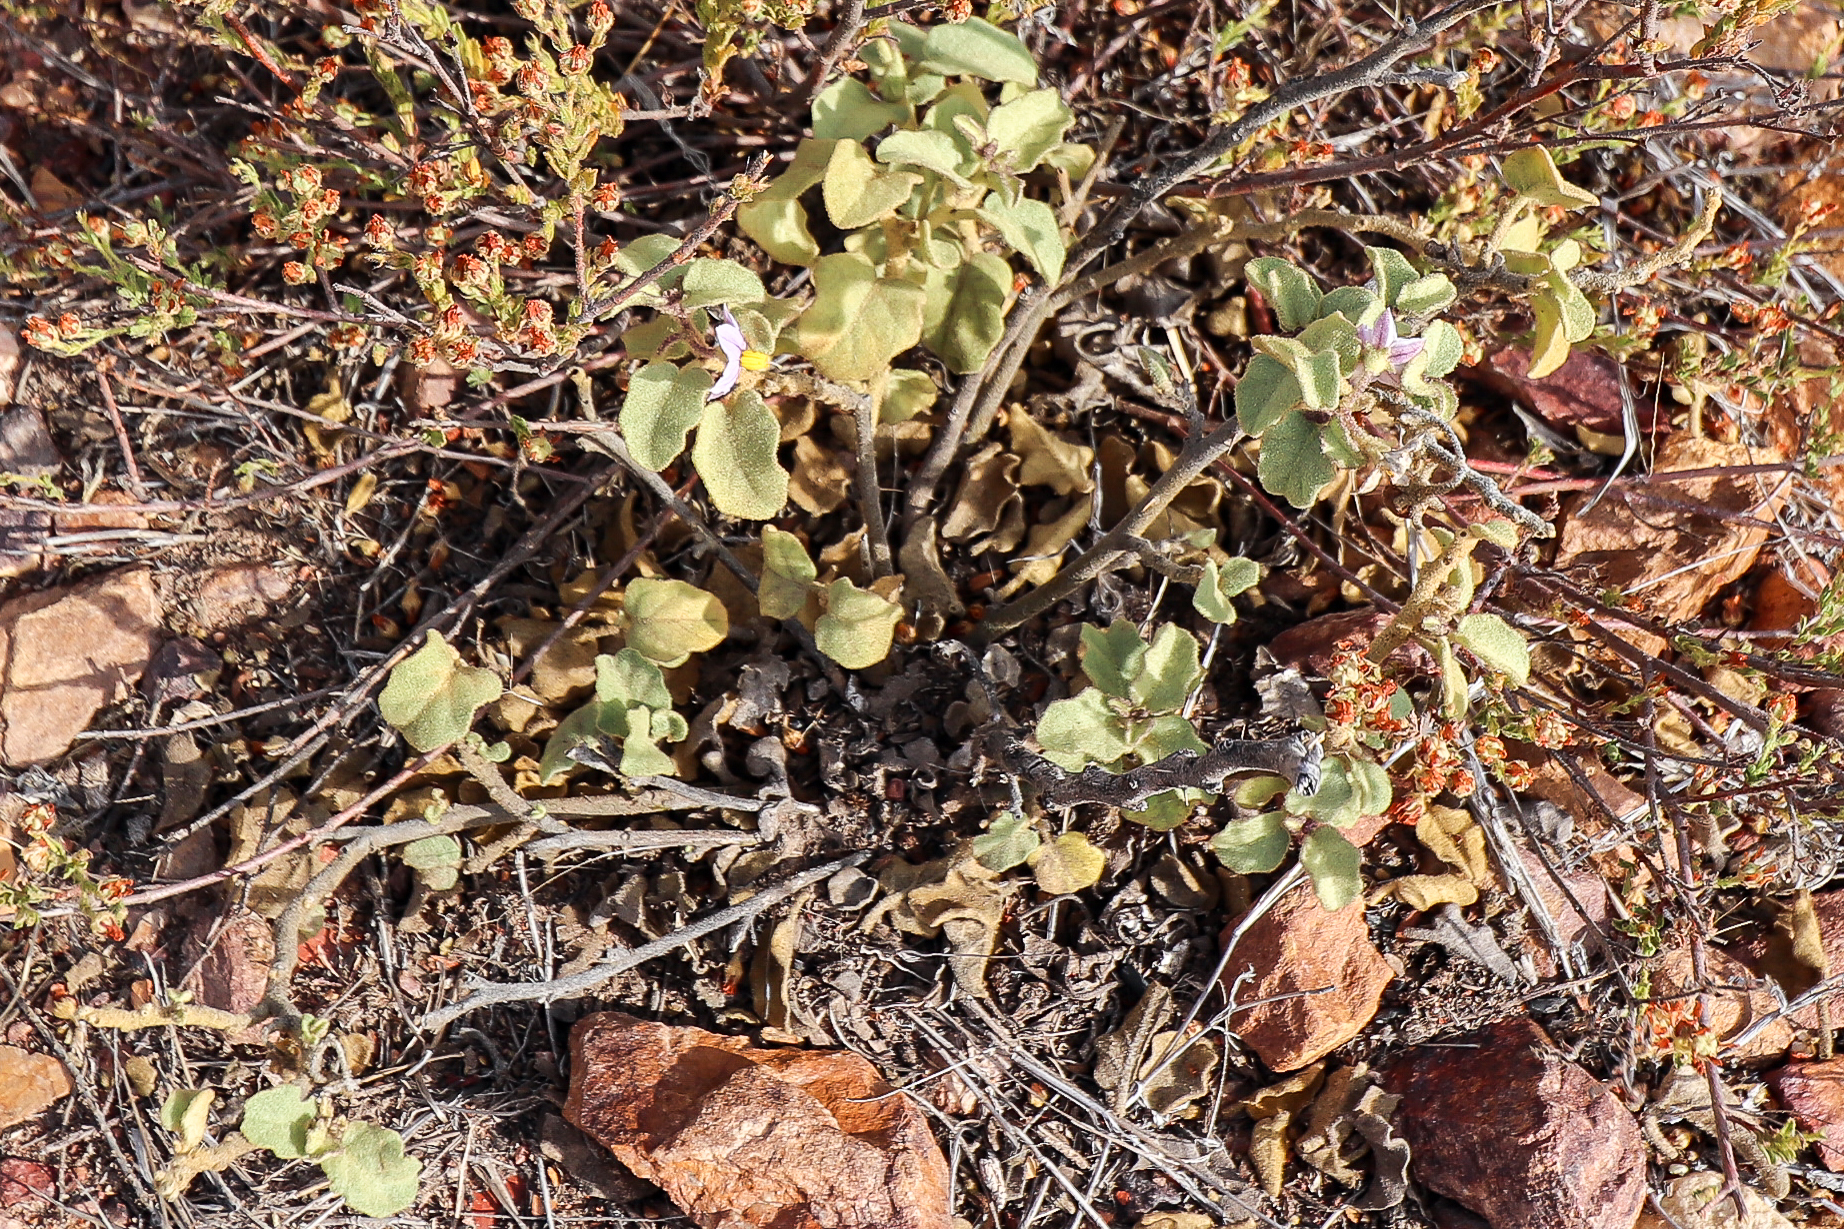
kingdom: Plantae
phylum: Tracheophyta
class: Magnoliopsida
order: Solanales
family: Solanaceae
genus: Solanum
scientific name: Solanum tomentosum
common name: Wild aubergine
